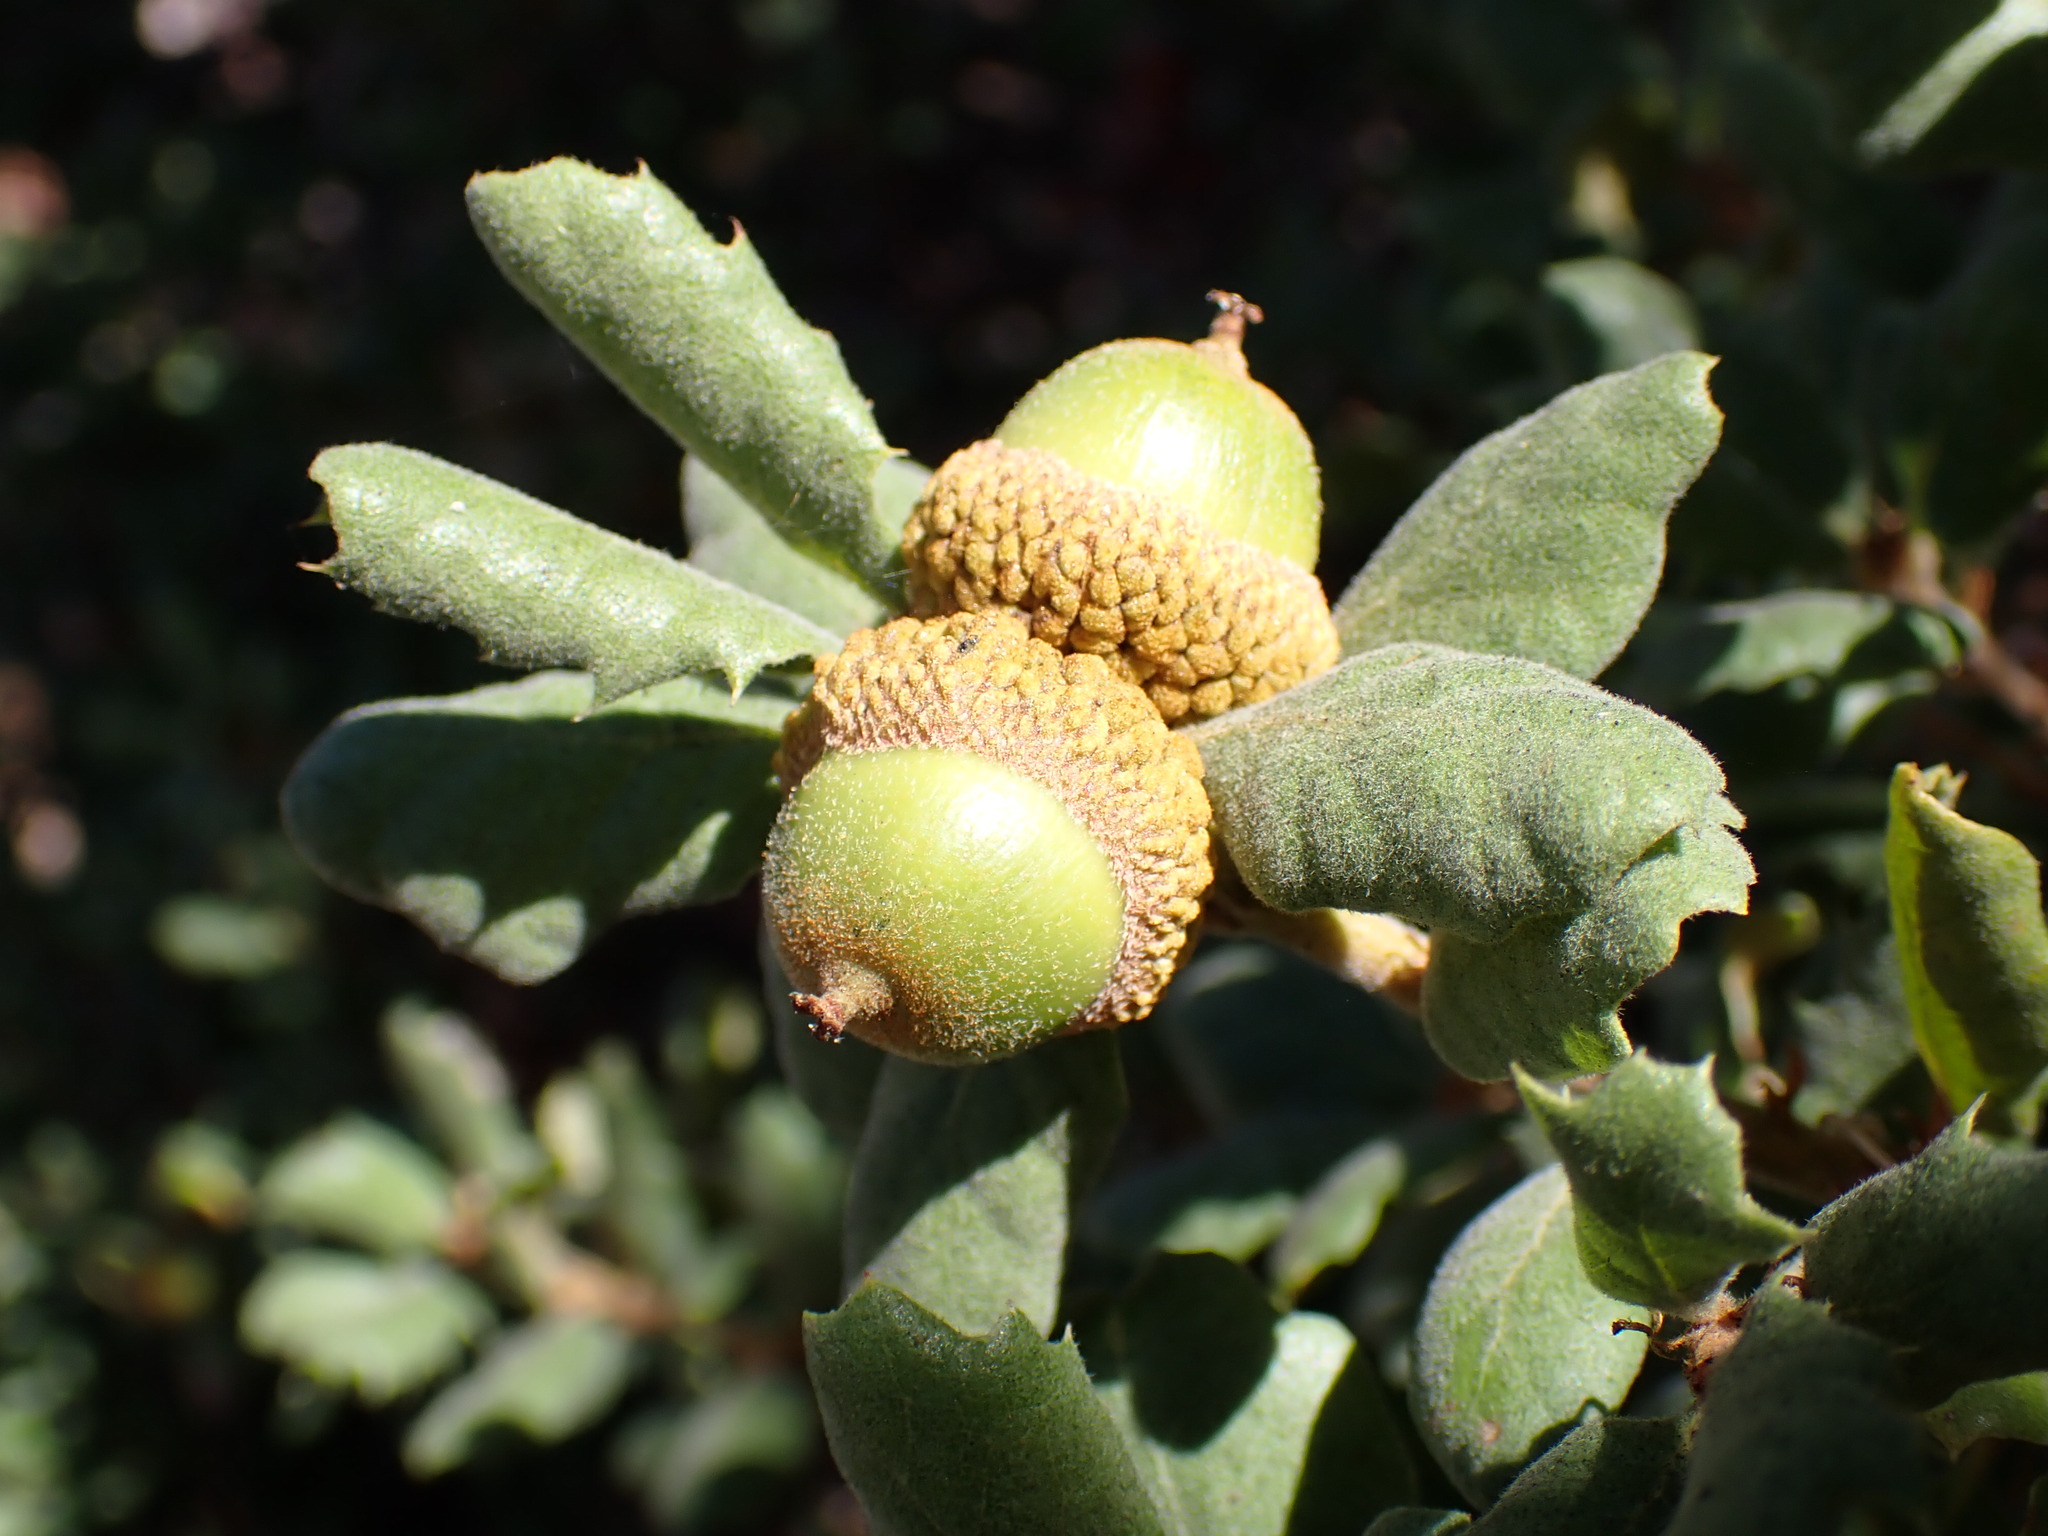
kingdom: Plantae
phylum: Tracheophyta
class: Magnoliopsida
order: Fagales
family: Fagaceae
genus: Quercus
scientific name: Quercus durata
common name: Leather oak
